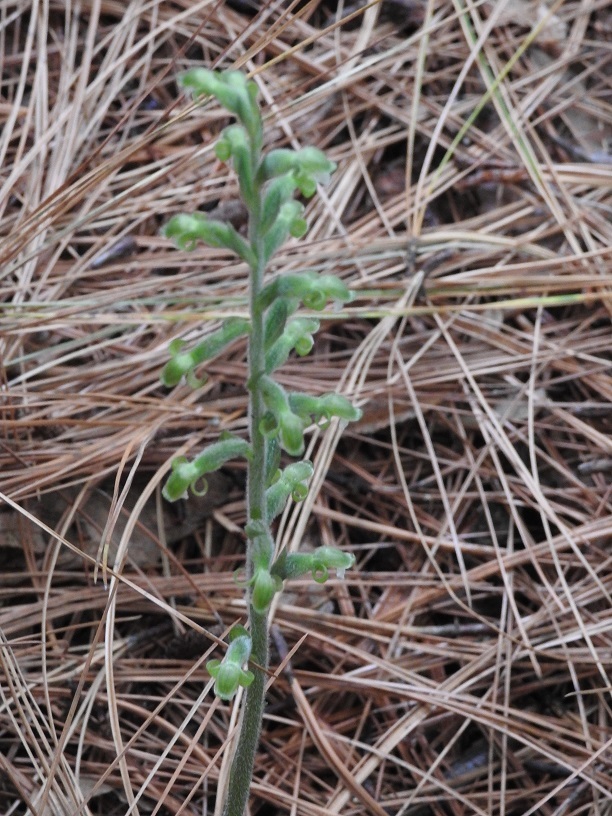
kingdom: Plantae
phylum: Tracheophyta
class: Liliopsida
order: Asparagales
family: Orchidaceae
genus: Sarcoglottis
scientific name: Sarcoglottis schaffneri
